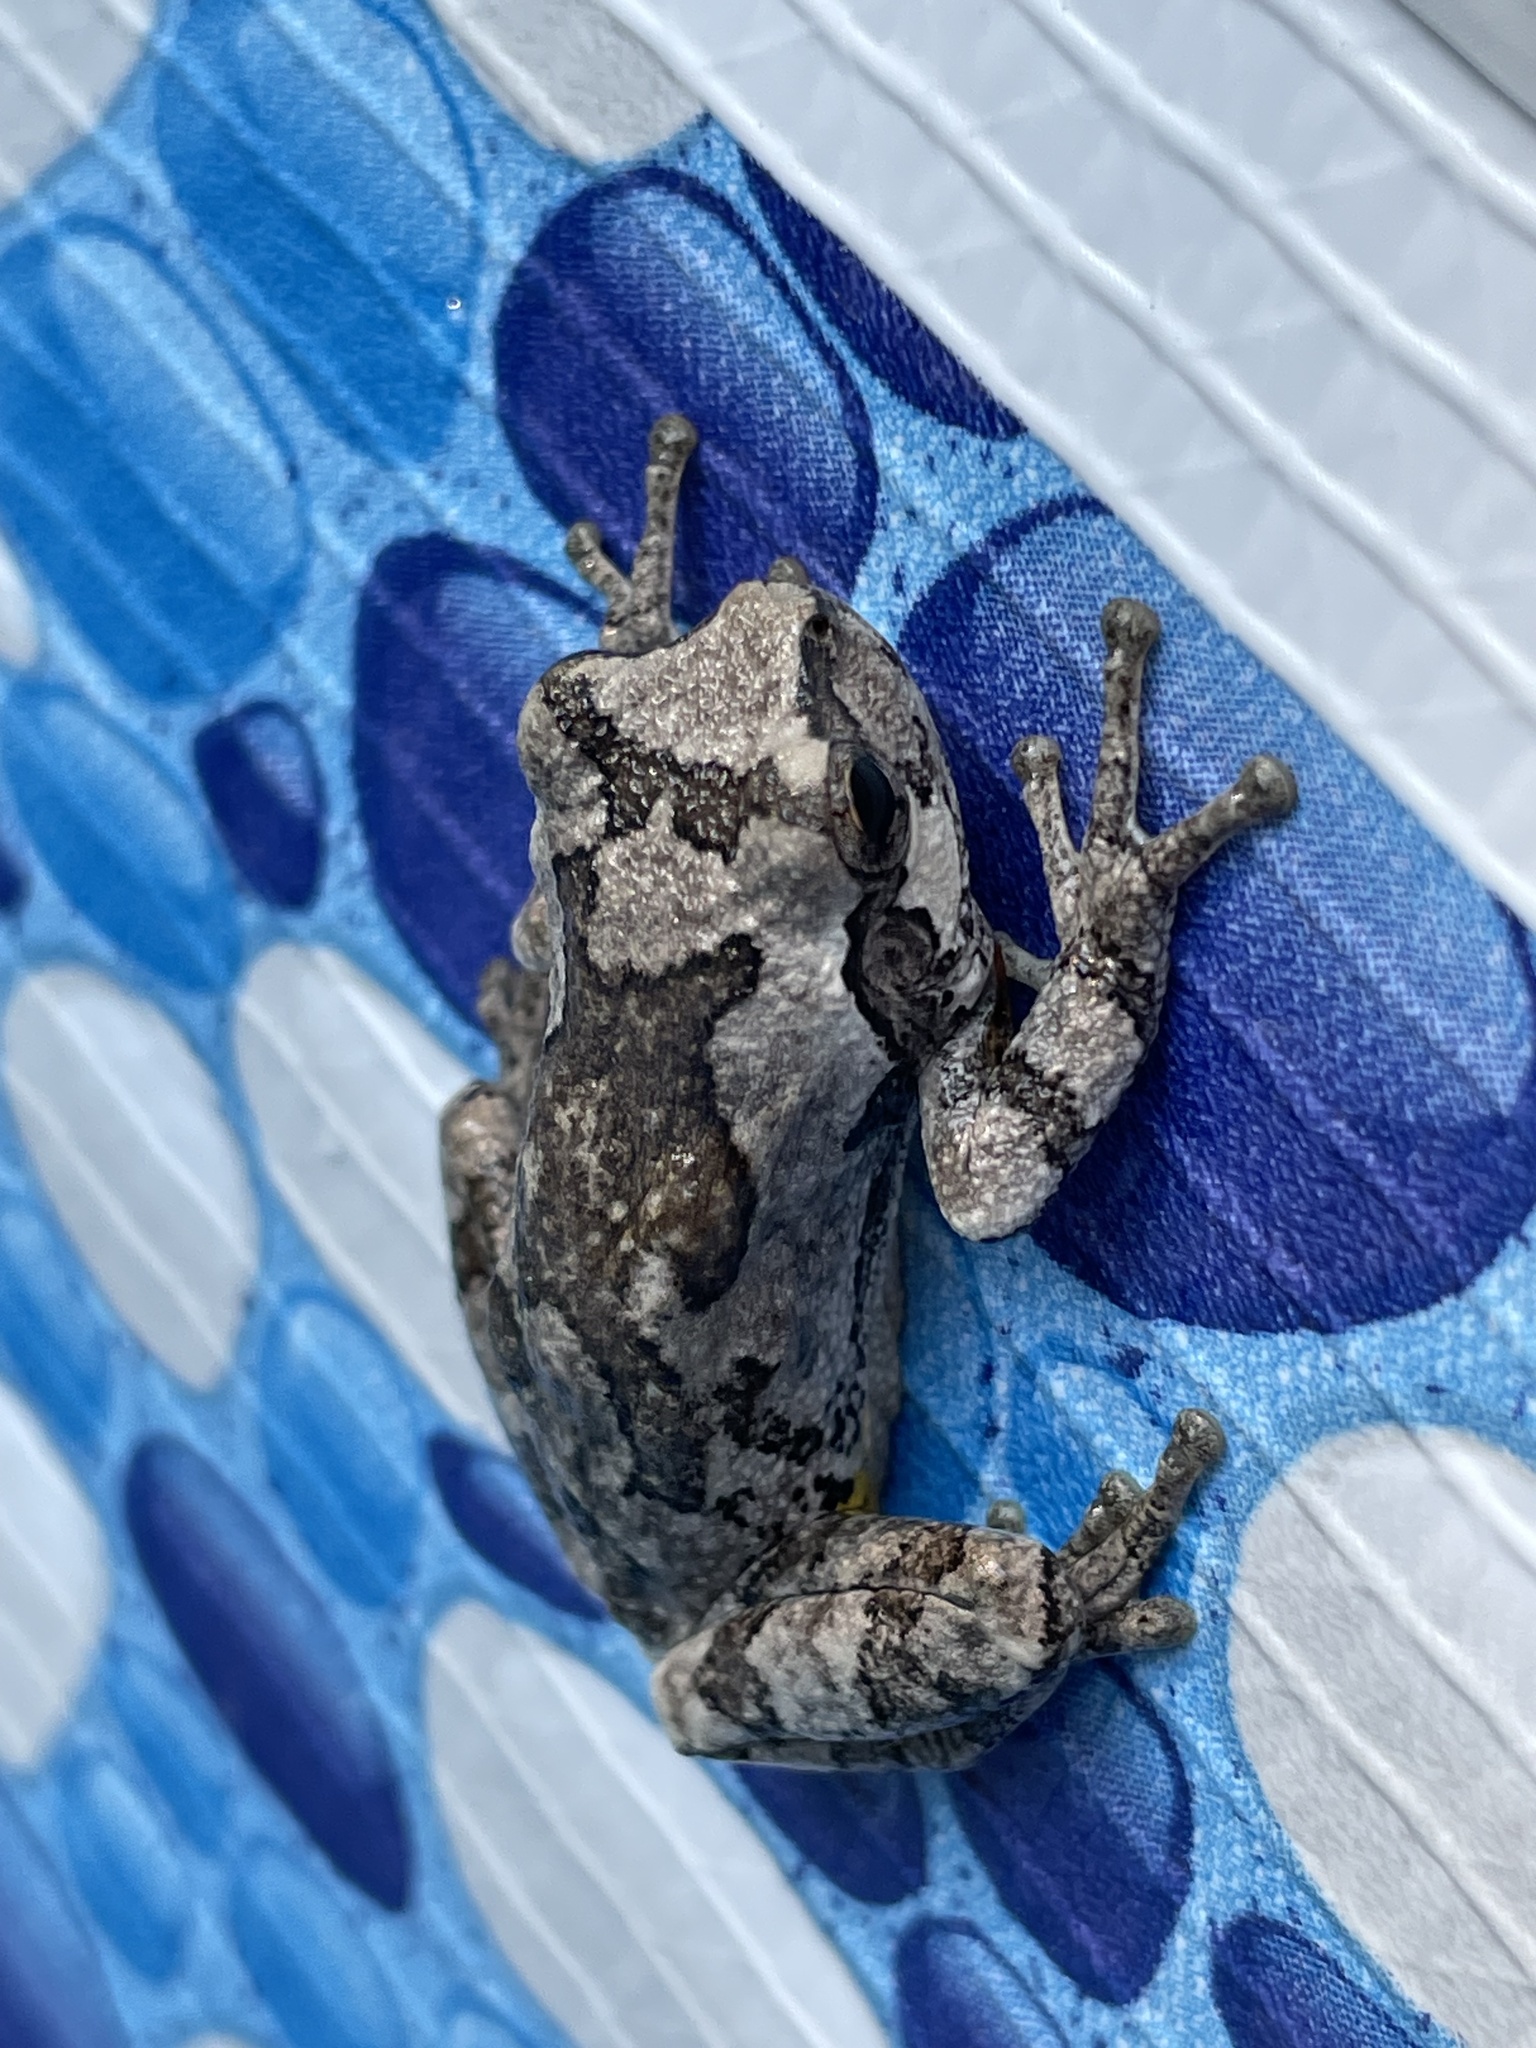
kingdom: Animalia
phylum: Chordata
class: Amphibia
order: Anura
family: Hylidae
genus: Hyla
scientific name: Hyla
